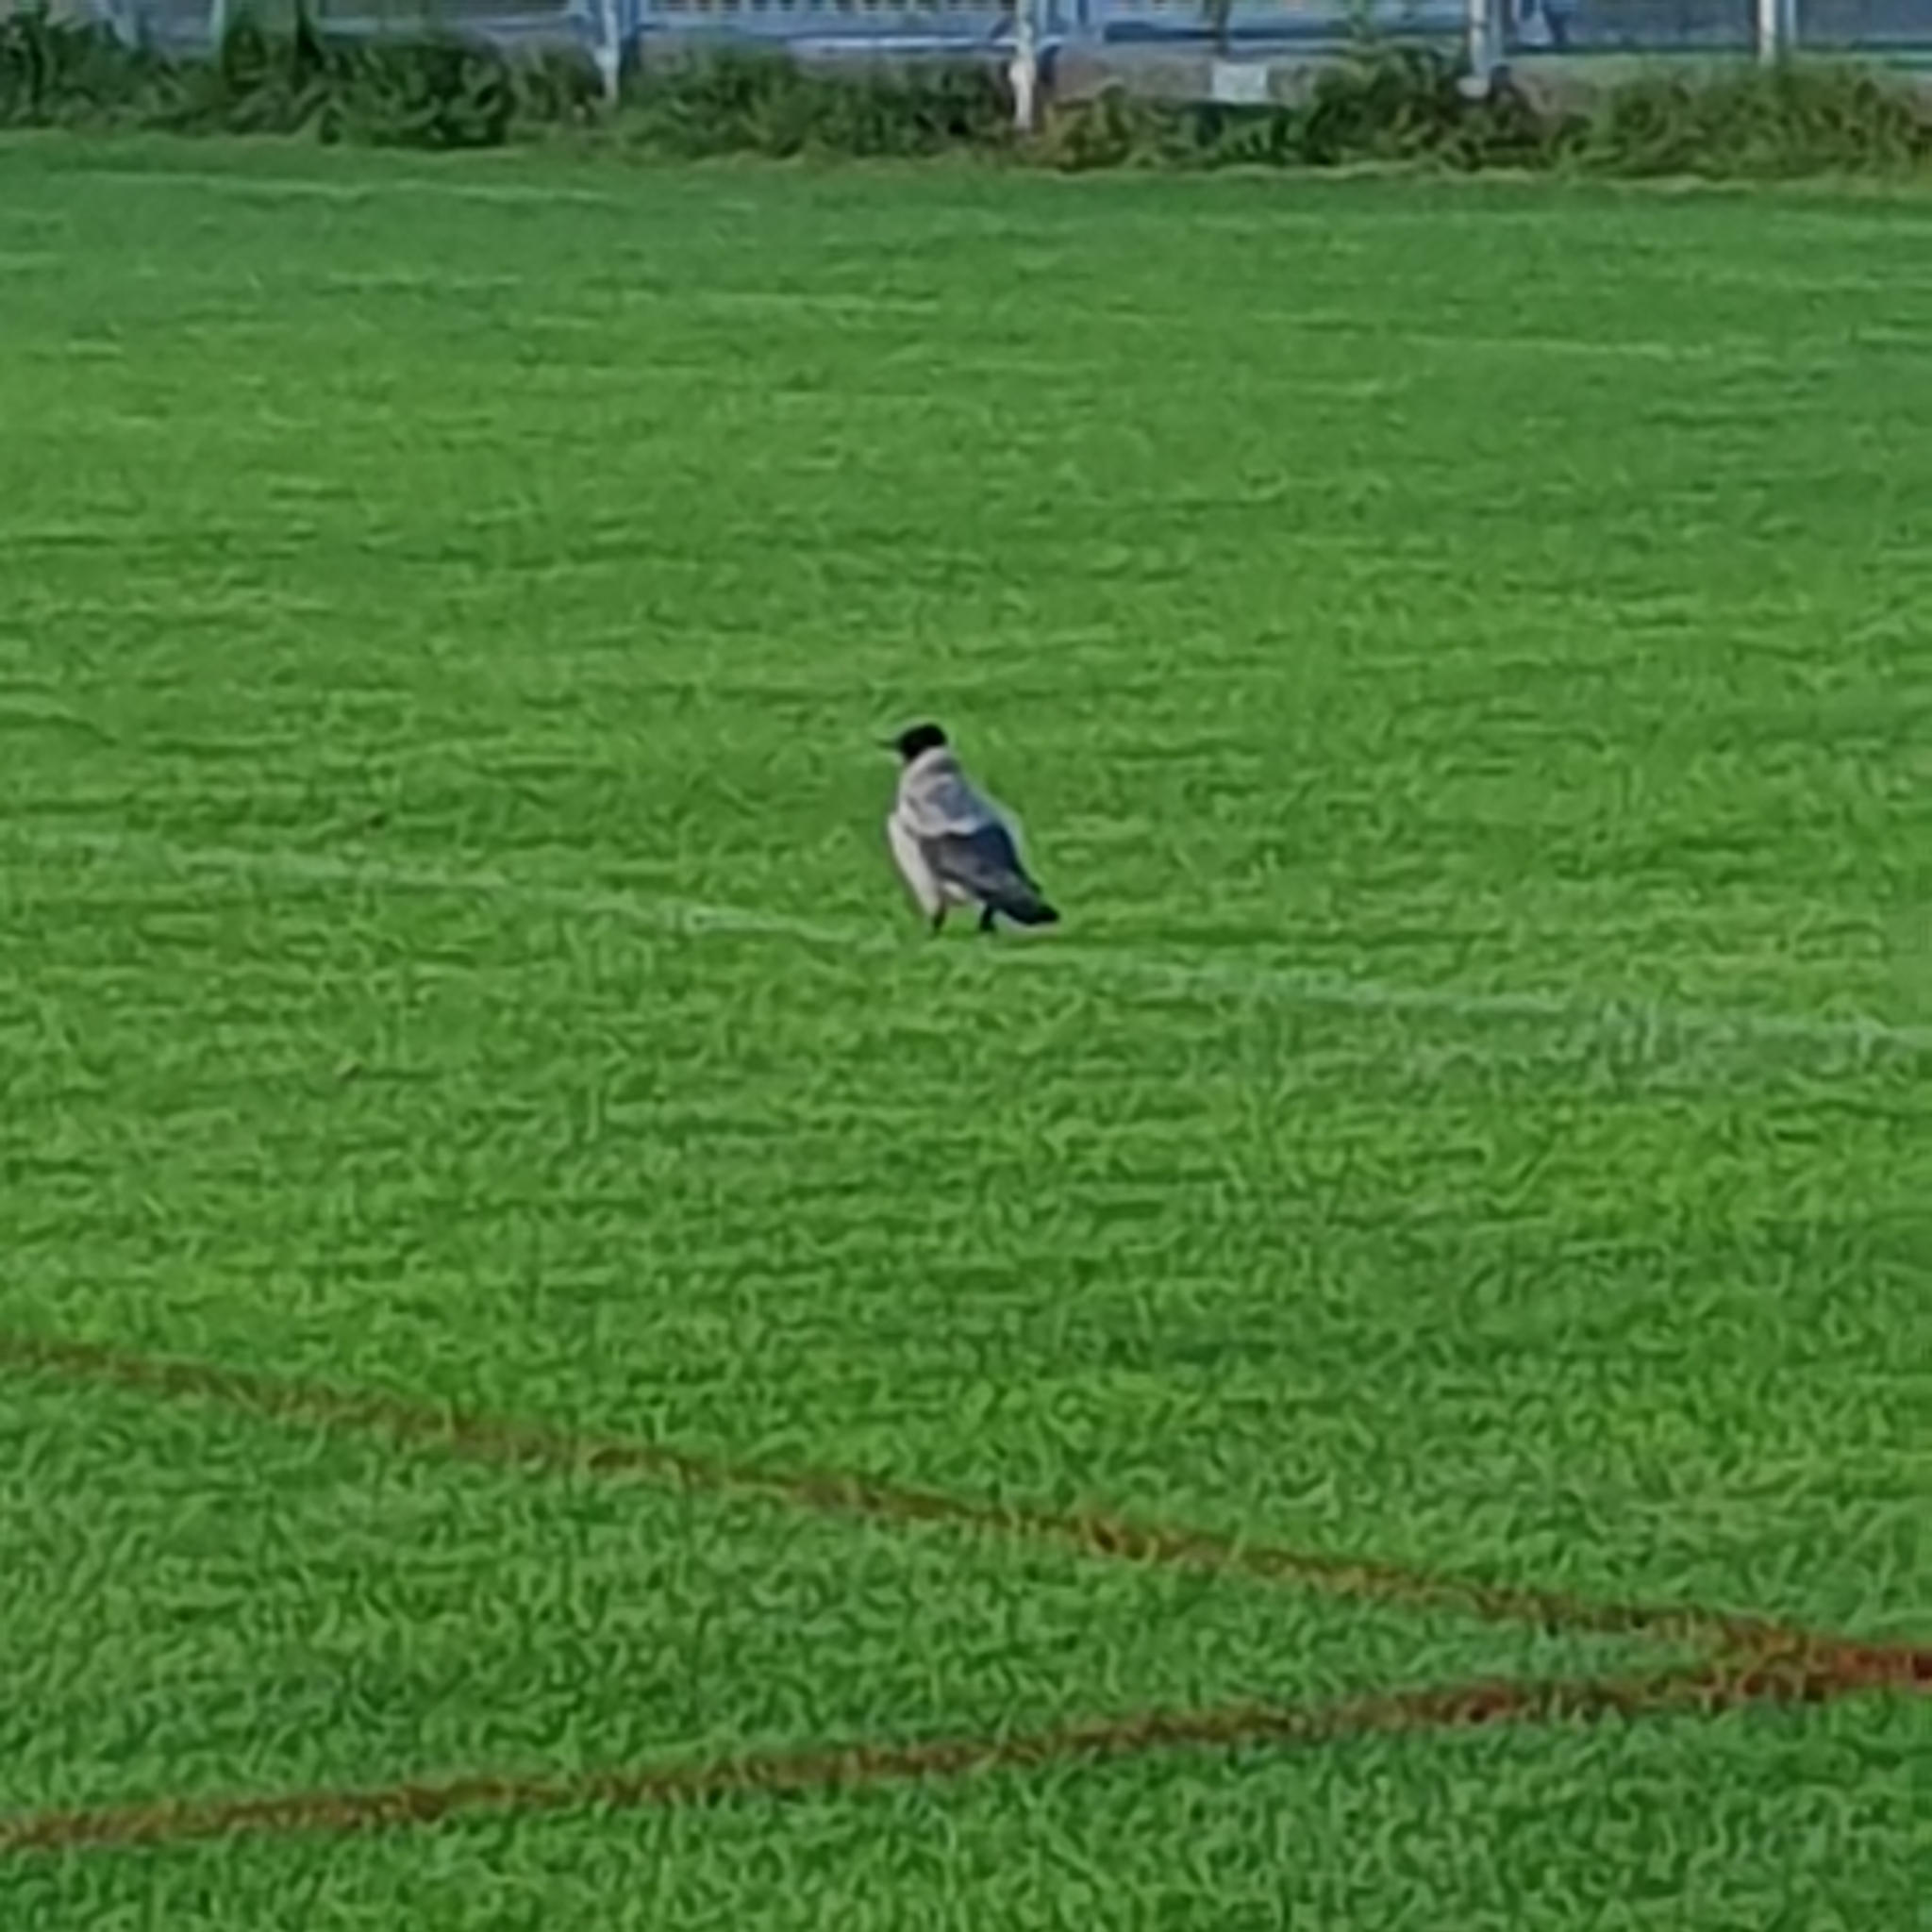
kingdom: Animalia
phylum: Chordata
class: Aves
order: Passeriformes
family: Corvidae
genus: Corvus
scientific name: Corvus cornix
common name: Hooded crow
